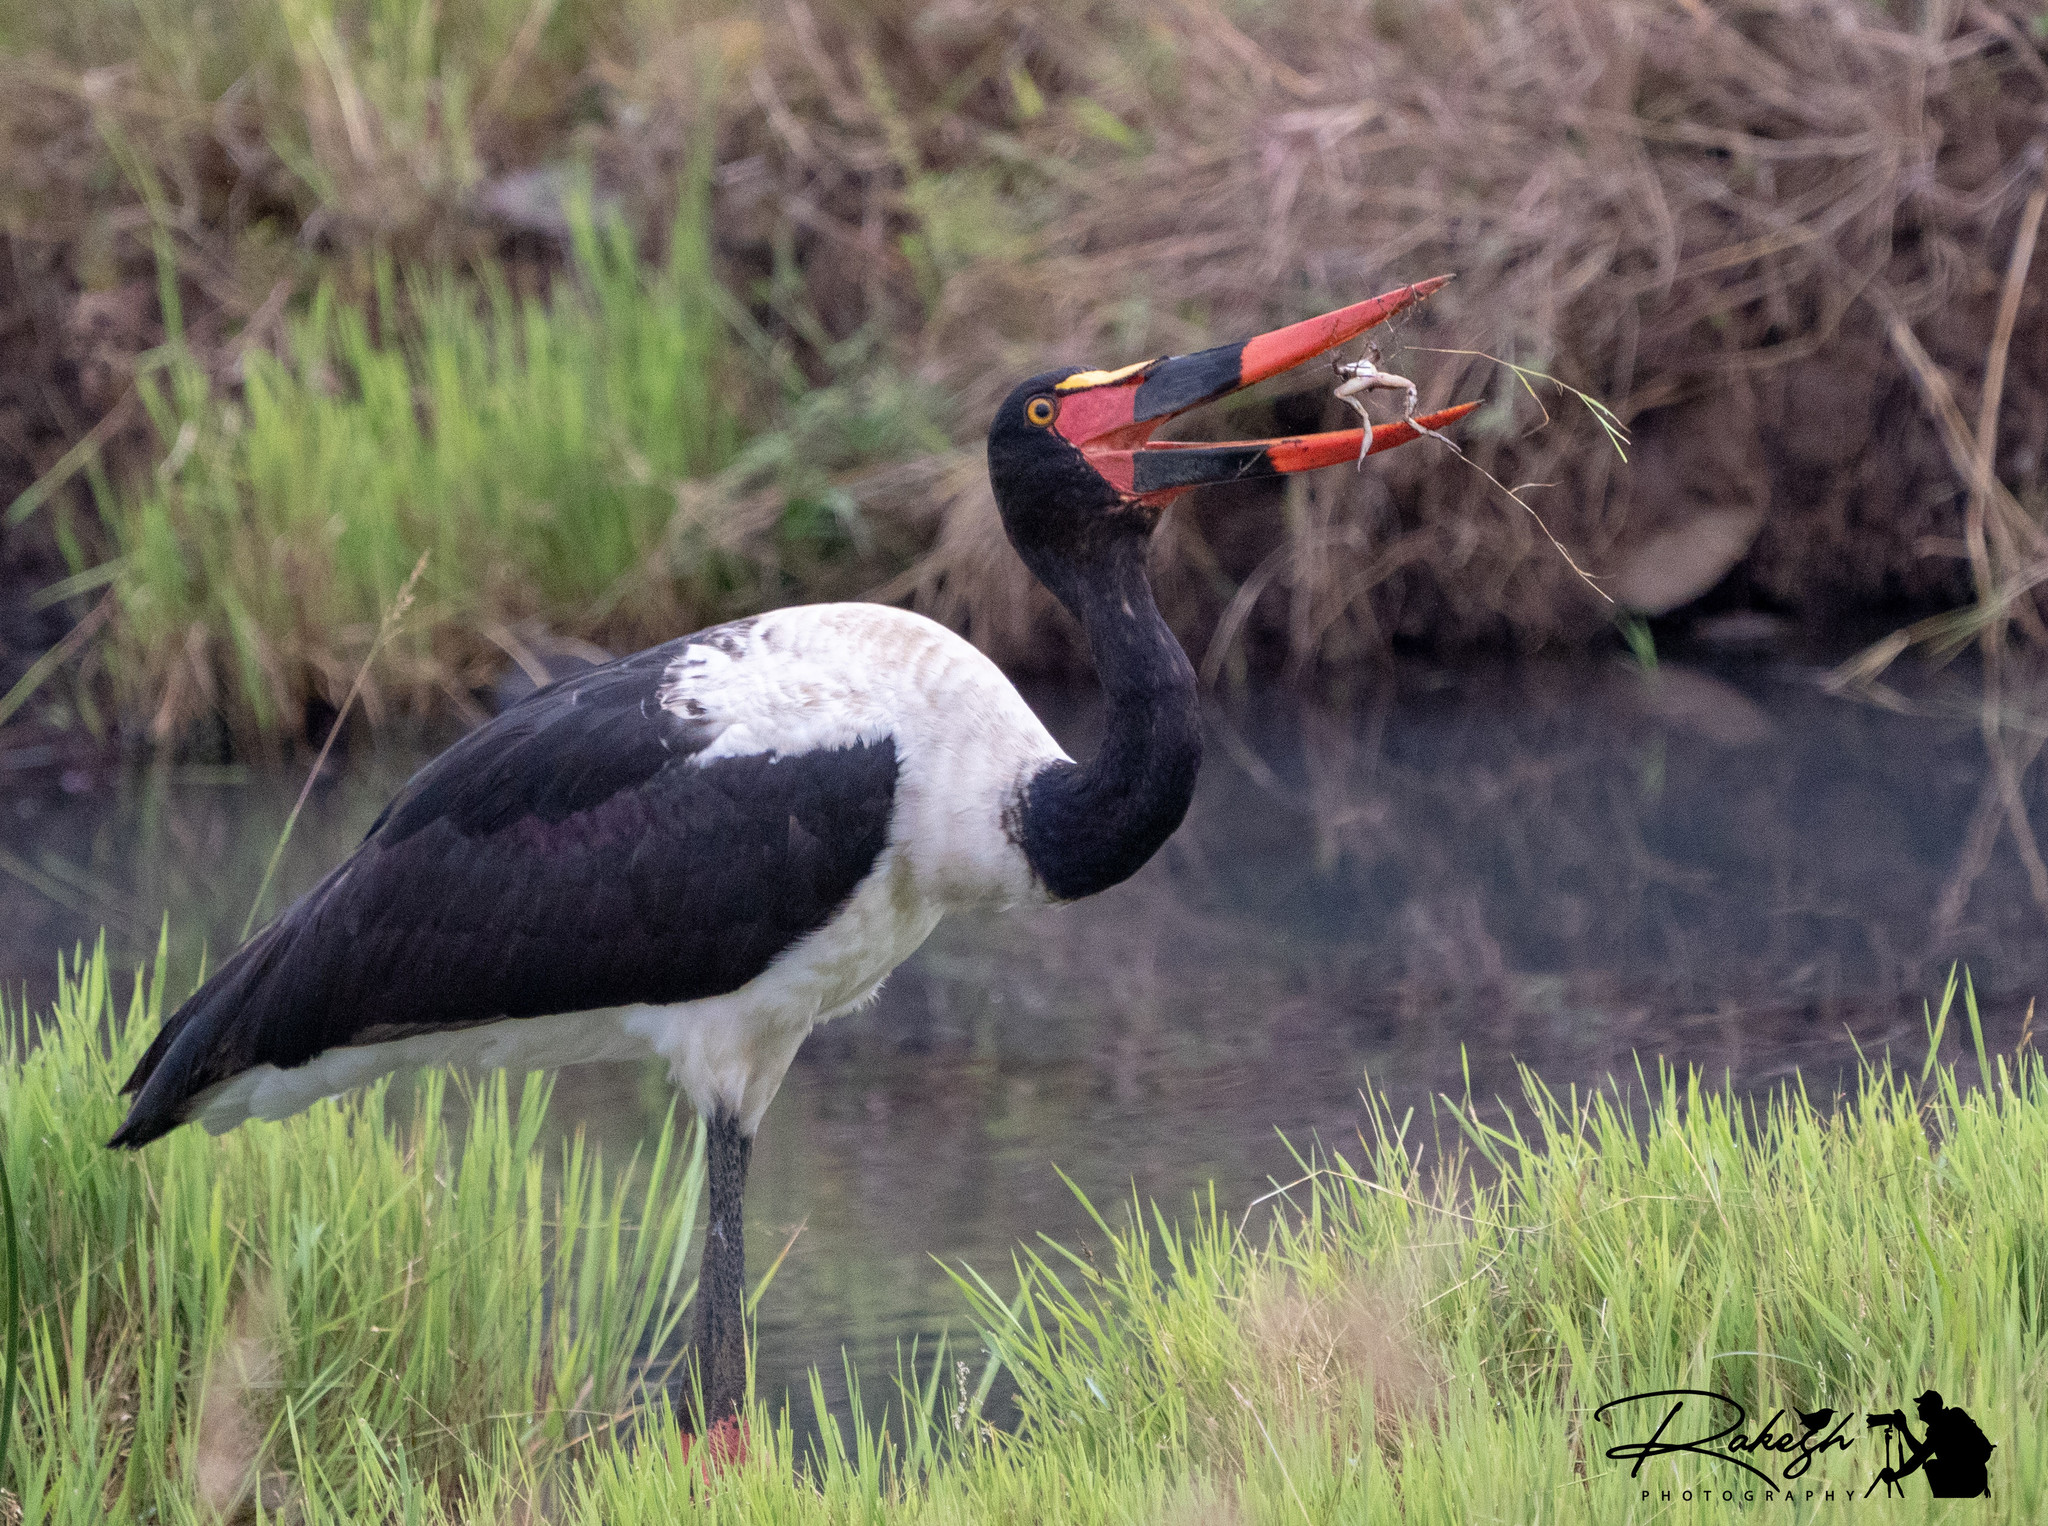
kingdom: Animalia
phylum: Chordata
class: Aves
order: Ciconiiformes
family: Ciconiidae
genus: Ephippiorhynchus
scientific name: Ephippiorhynchus senegalensis
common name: Saddle-billed stork
